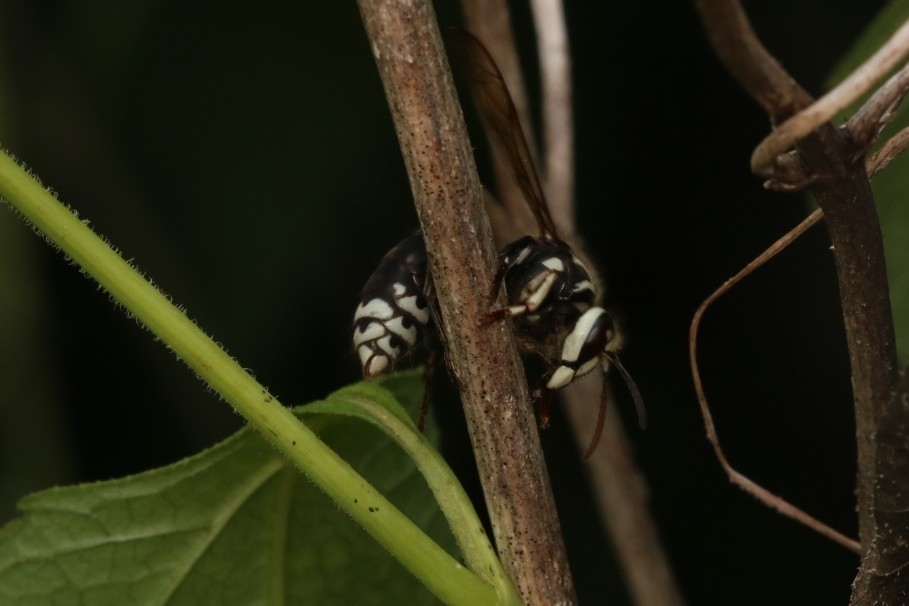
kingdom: Animalia
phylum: Arthropoda
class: Insecta
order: Hymenoptera
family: Vespidae
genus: Dolichovespula
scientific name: Dolichovespula maculata
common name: Bald-faced hornet
